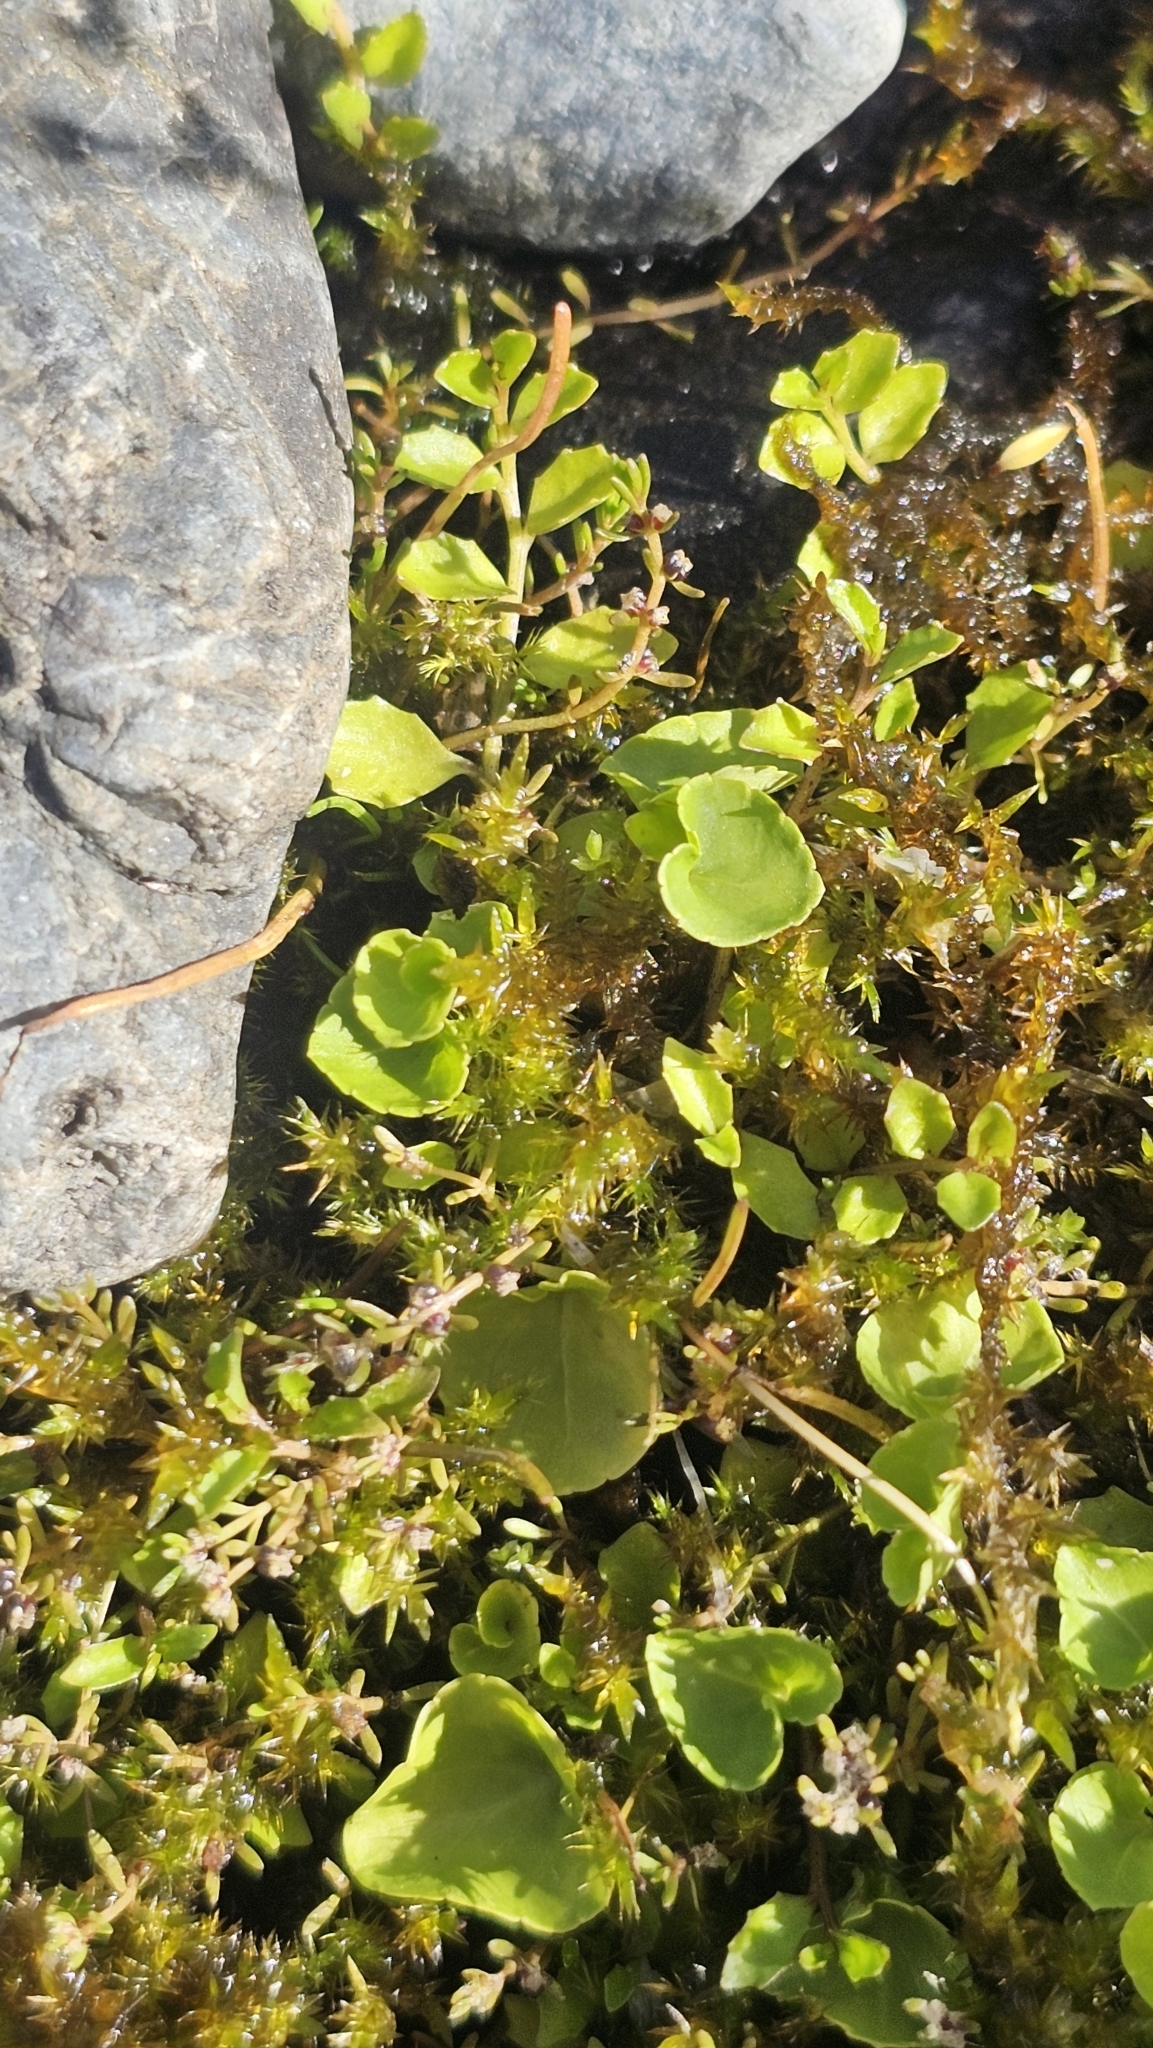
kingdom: Plantae
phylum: Tracheophyta
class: Magnoliopsida
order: Malpighiales
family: Violaceae
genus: Viola
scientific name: Viola cunninghamii
